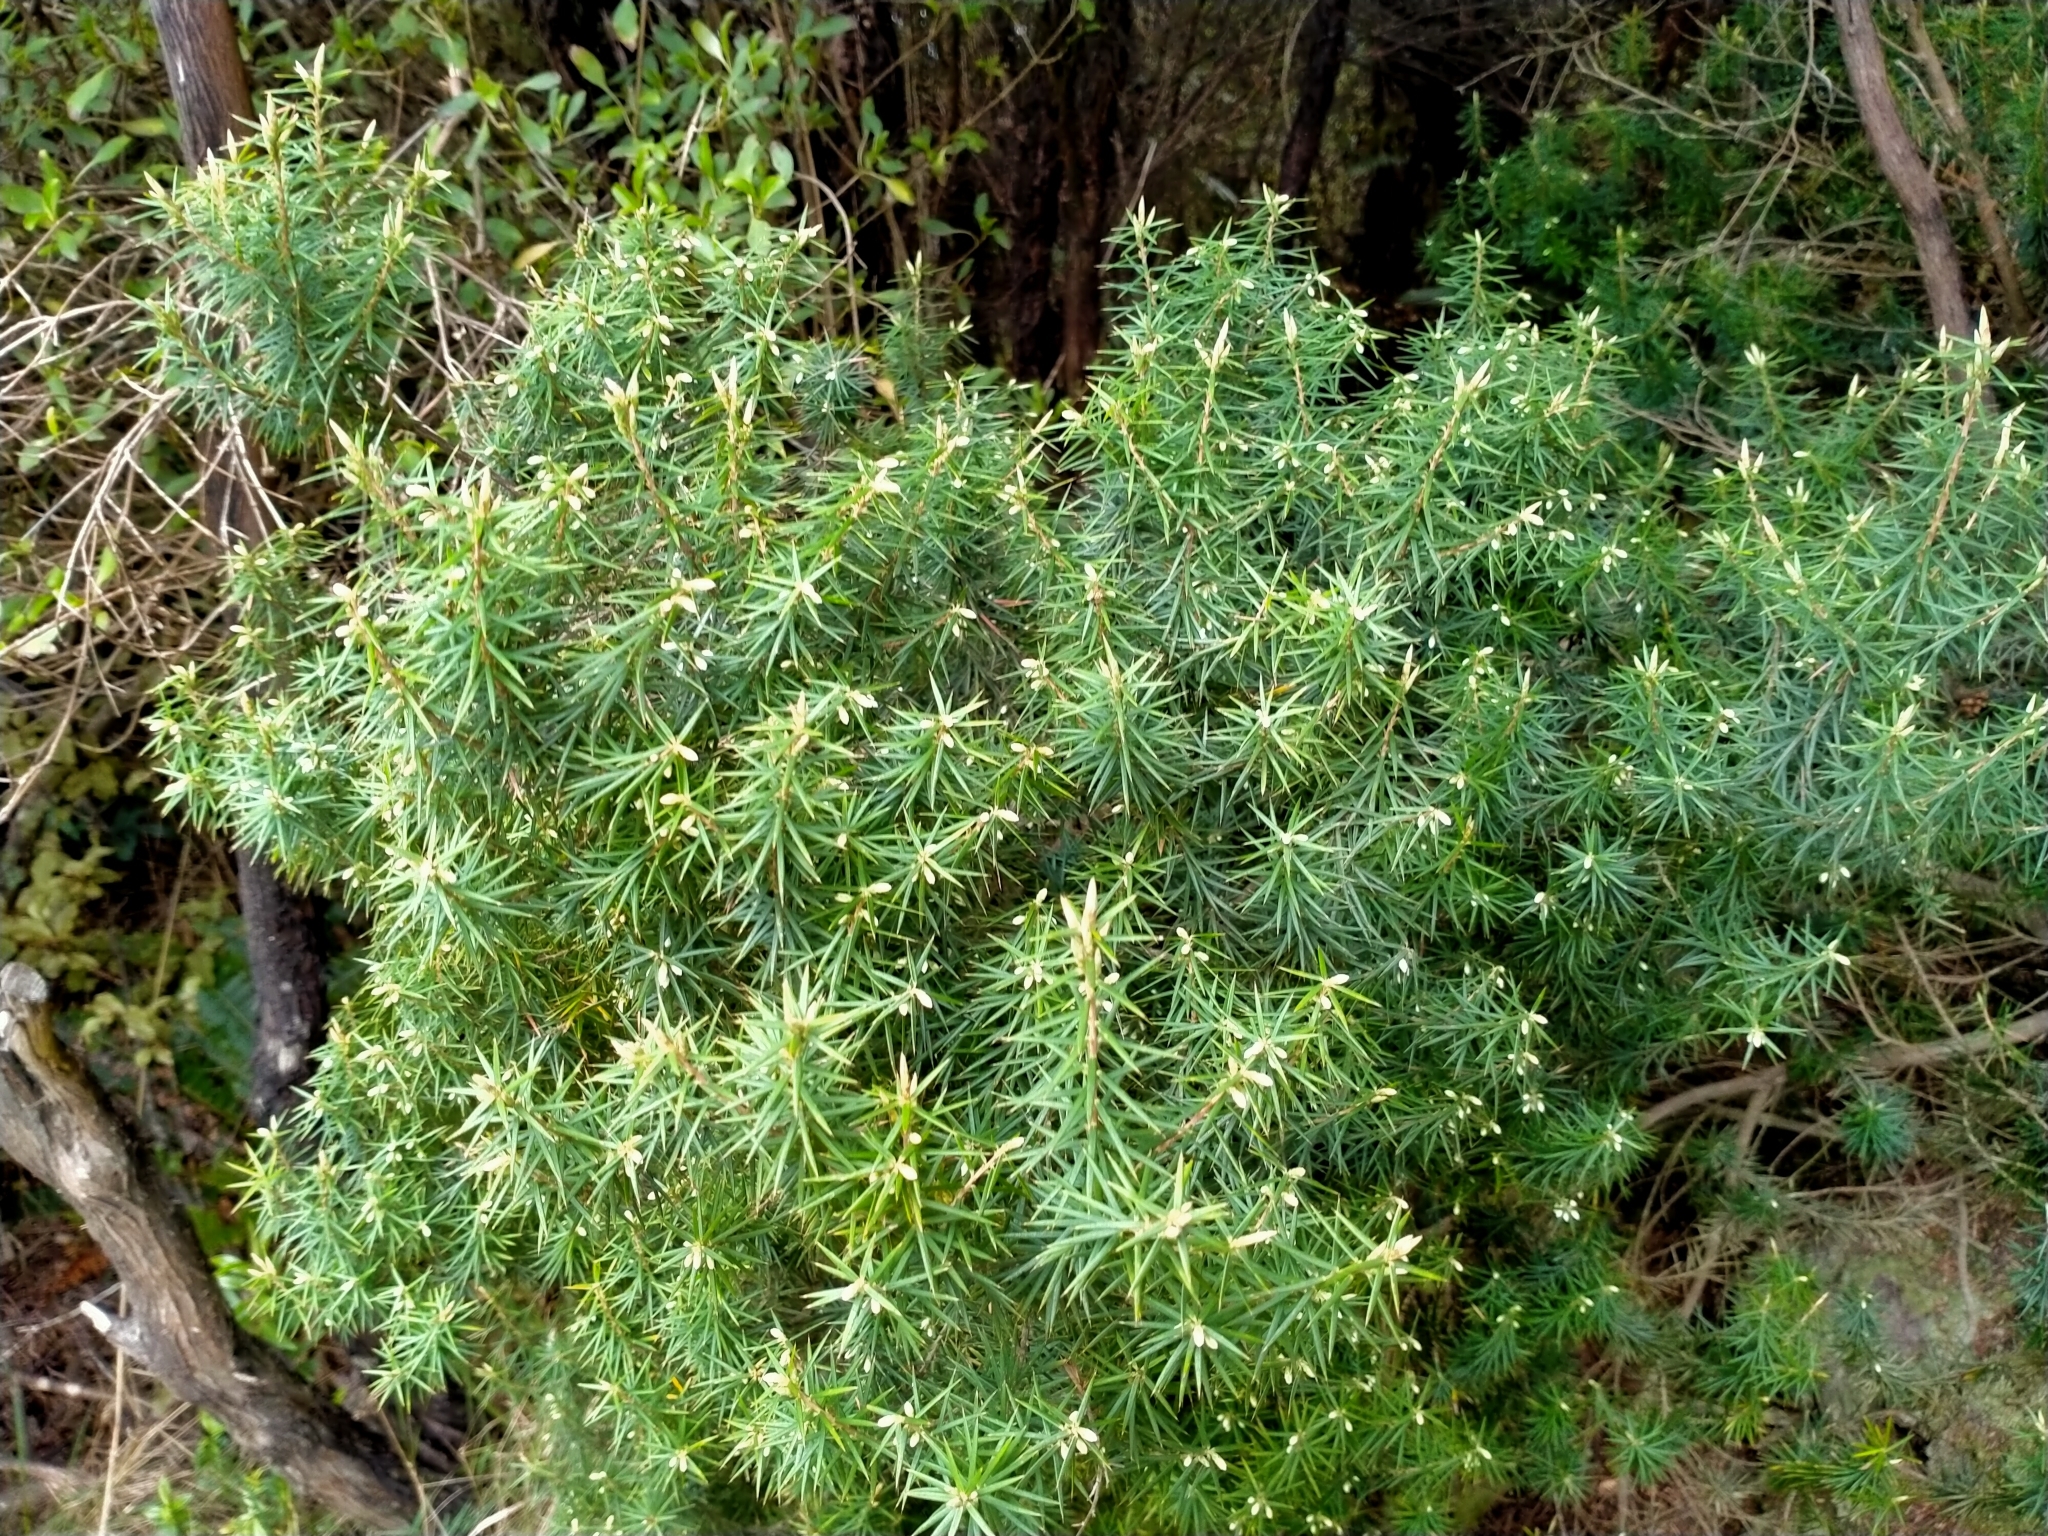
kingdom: Plantae
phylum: Tracheophyta
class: Magnoliopsida
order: Ericales
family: Ericaceae
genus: Leptecophylla
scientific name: Leptecophylla juniperina
